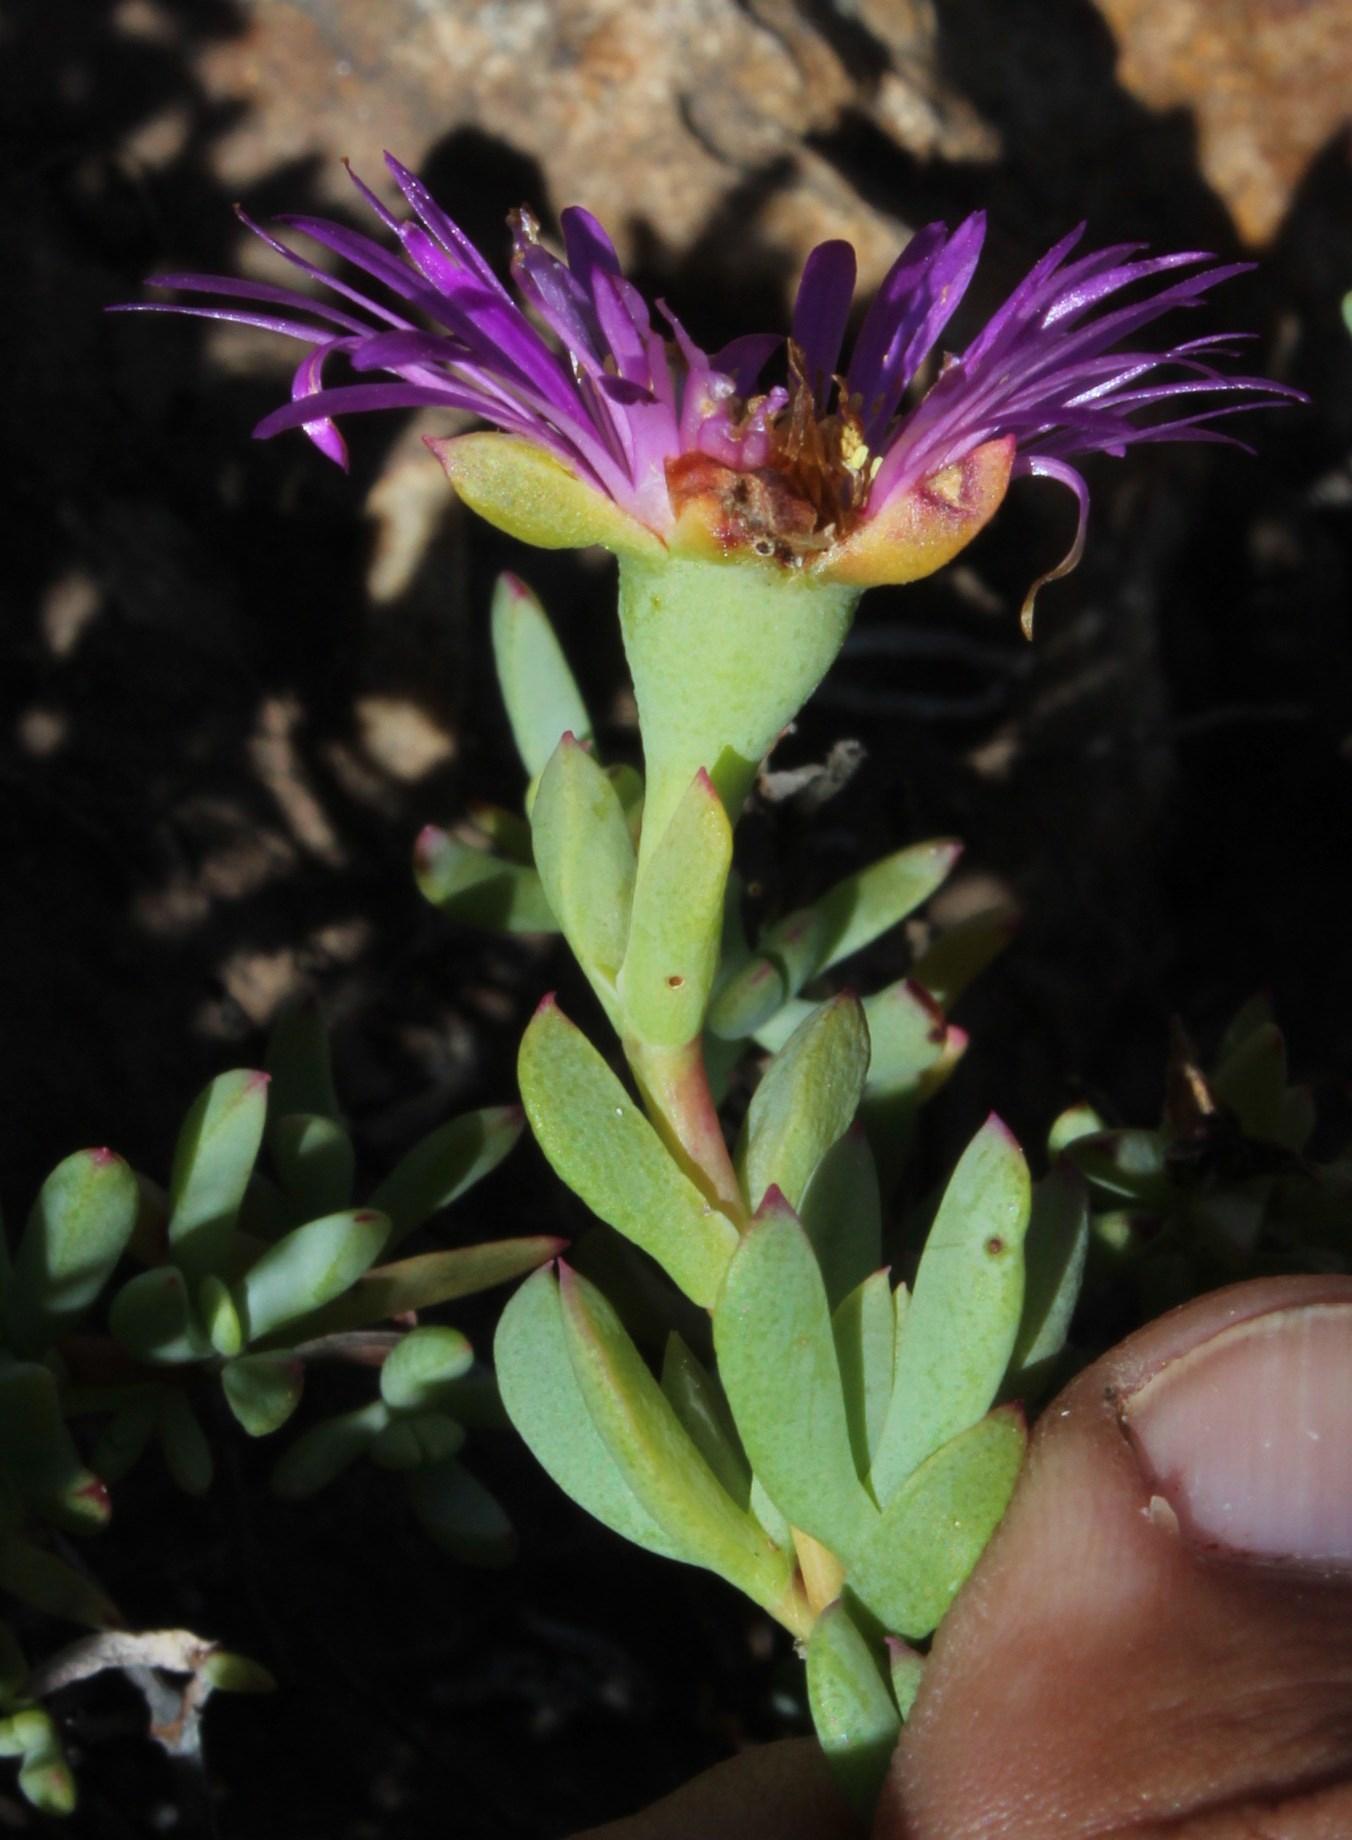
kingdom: Plantae
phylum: Tracheophyta
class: Magnoliopsida
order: Caryophyllales
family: Aizoaceae
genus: Oscularia
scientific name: Oscularia falciformis
